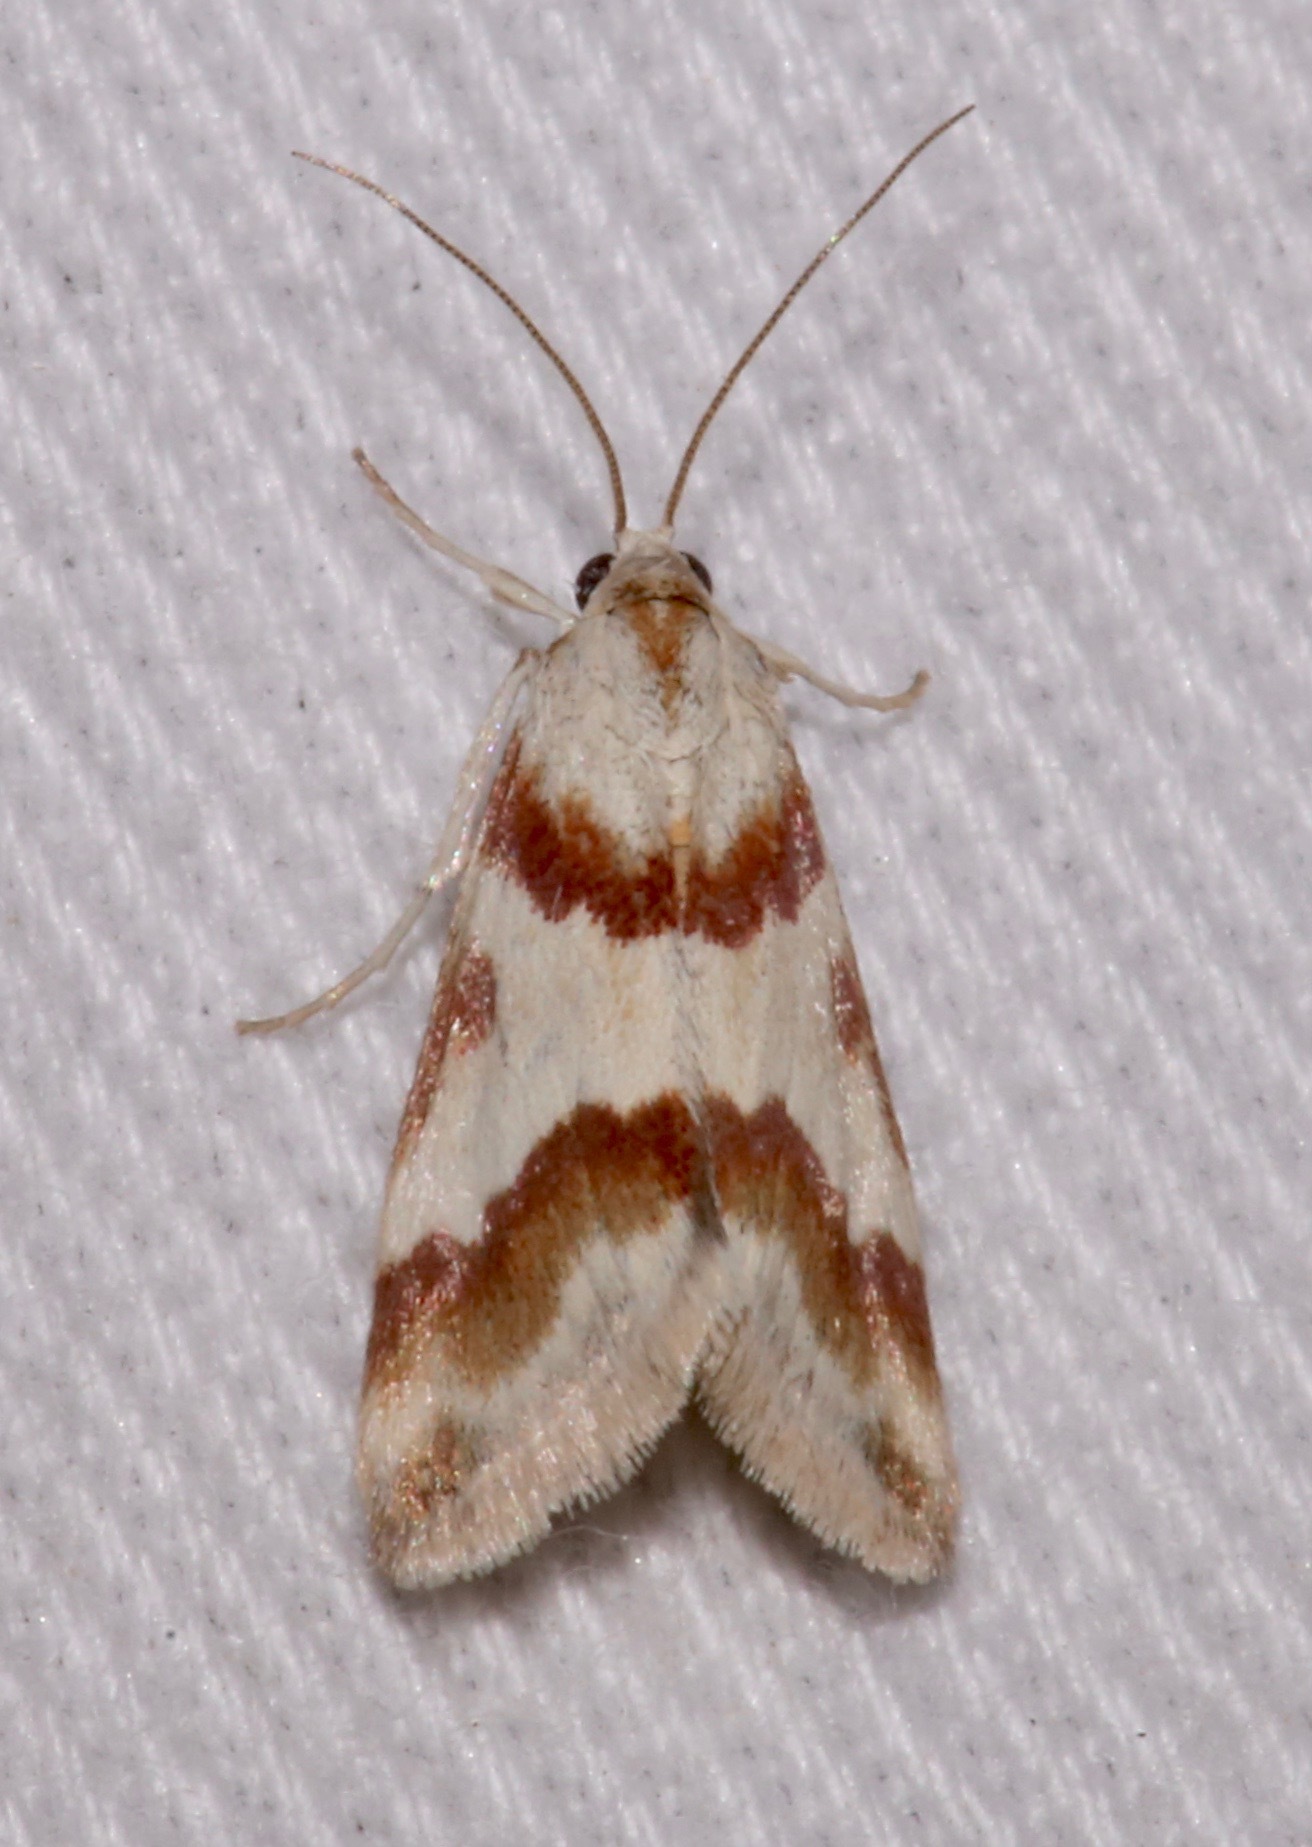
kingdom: Animalia
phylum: Arthropoda
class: Insecta
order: Lepidoptera
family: Crambidae
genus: Noctuelia
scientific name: Noctuelia Mimoschinia rufofascialis
